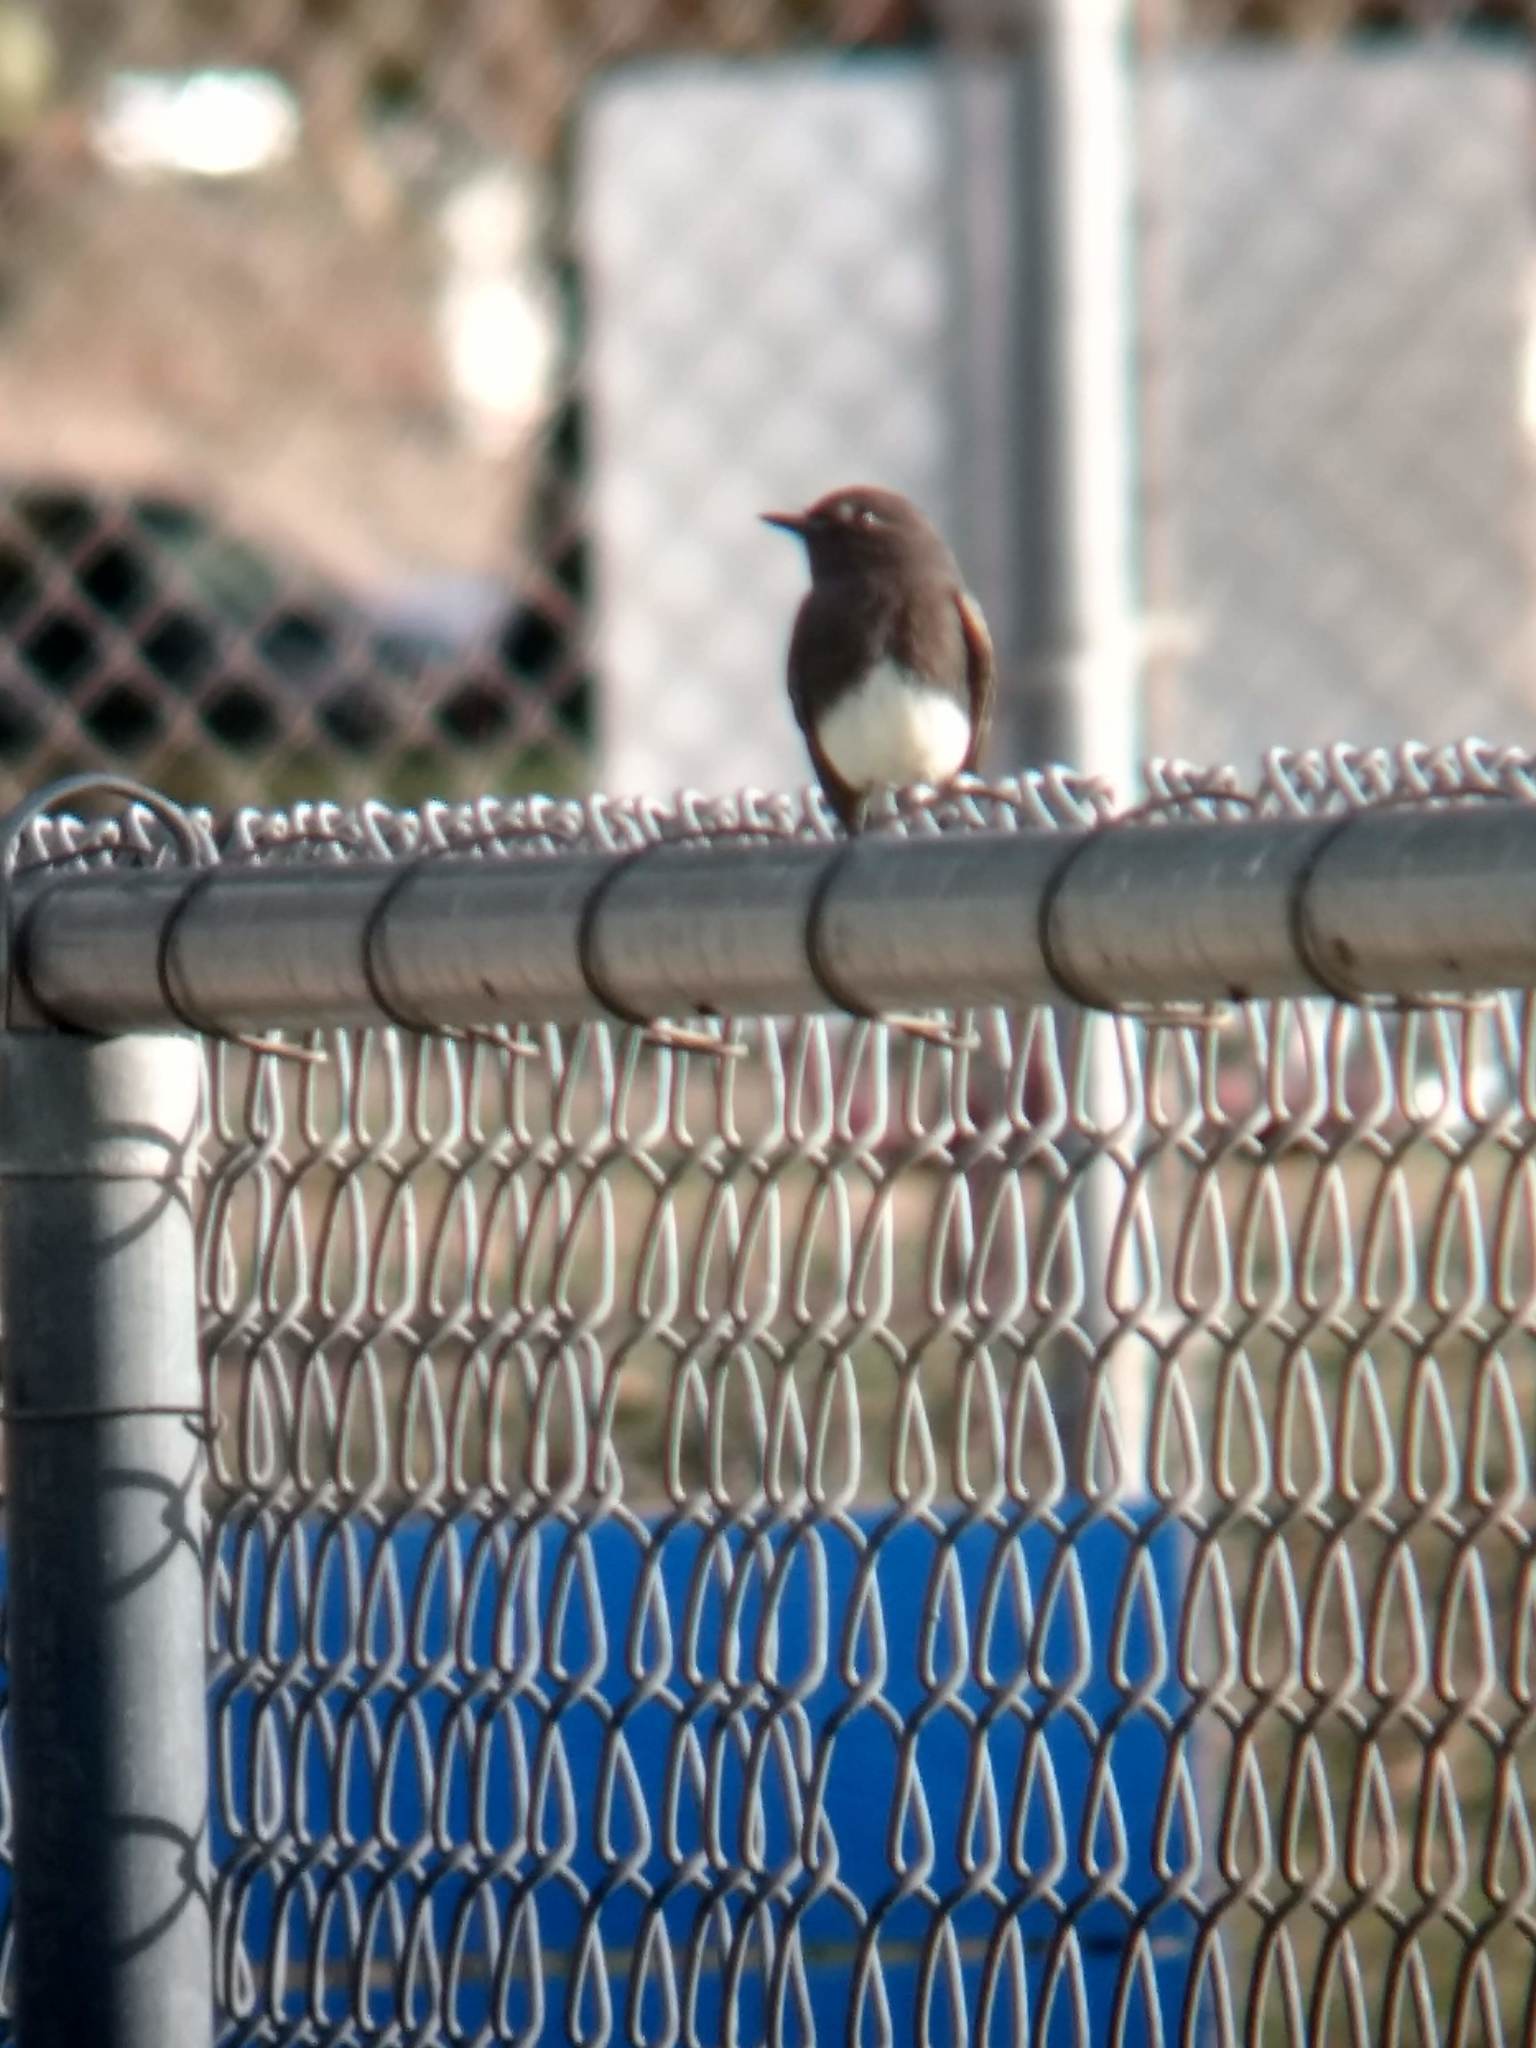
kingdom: Animalia
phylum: Chordata
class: Aves
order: Passeriformes
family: Tyrannidae
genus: Sayornis
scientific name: Sayornis nigricans
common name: Black phoebe
